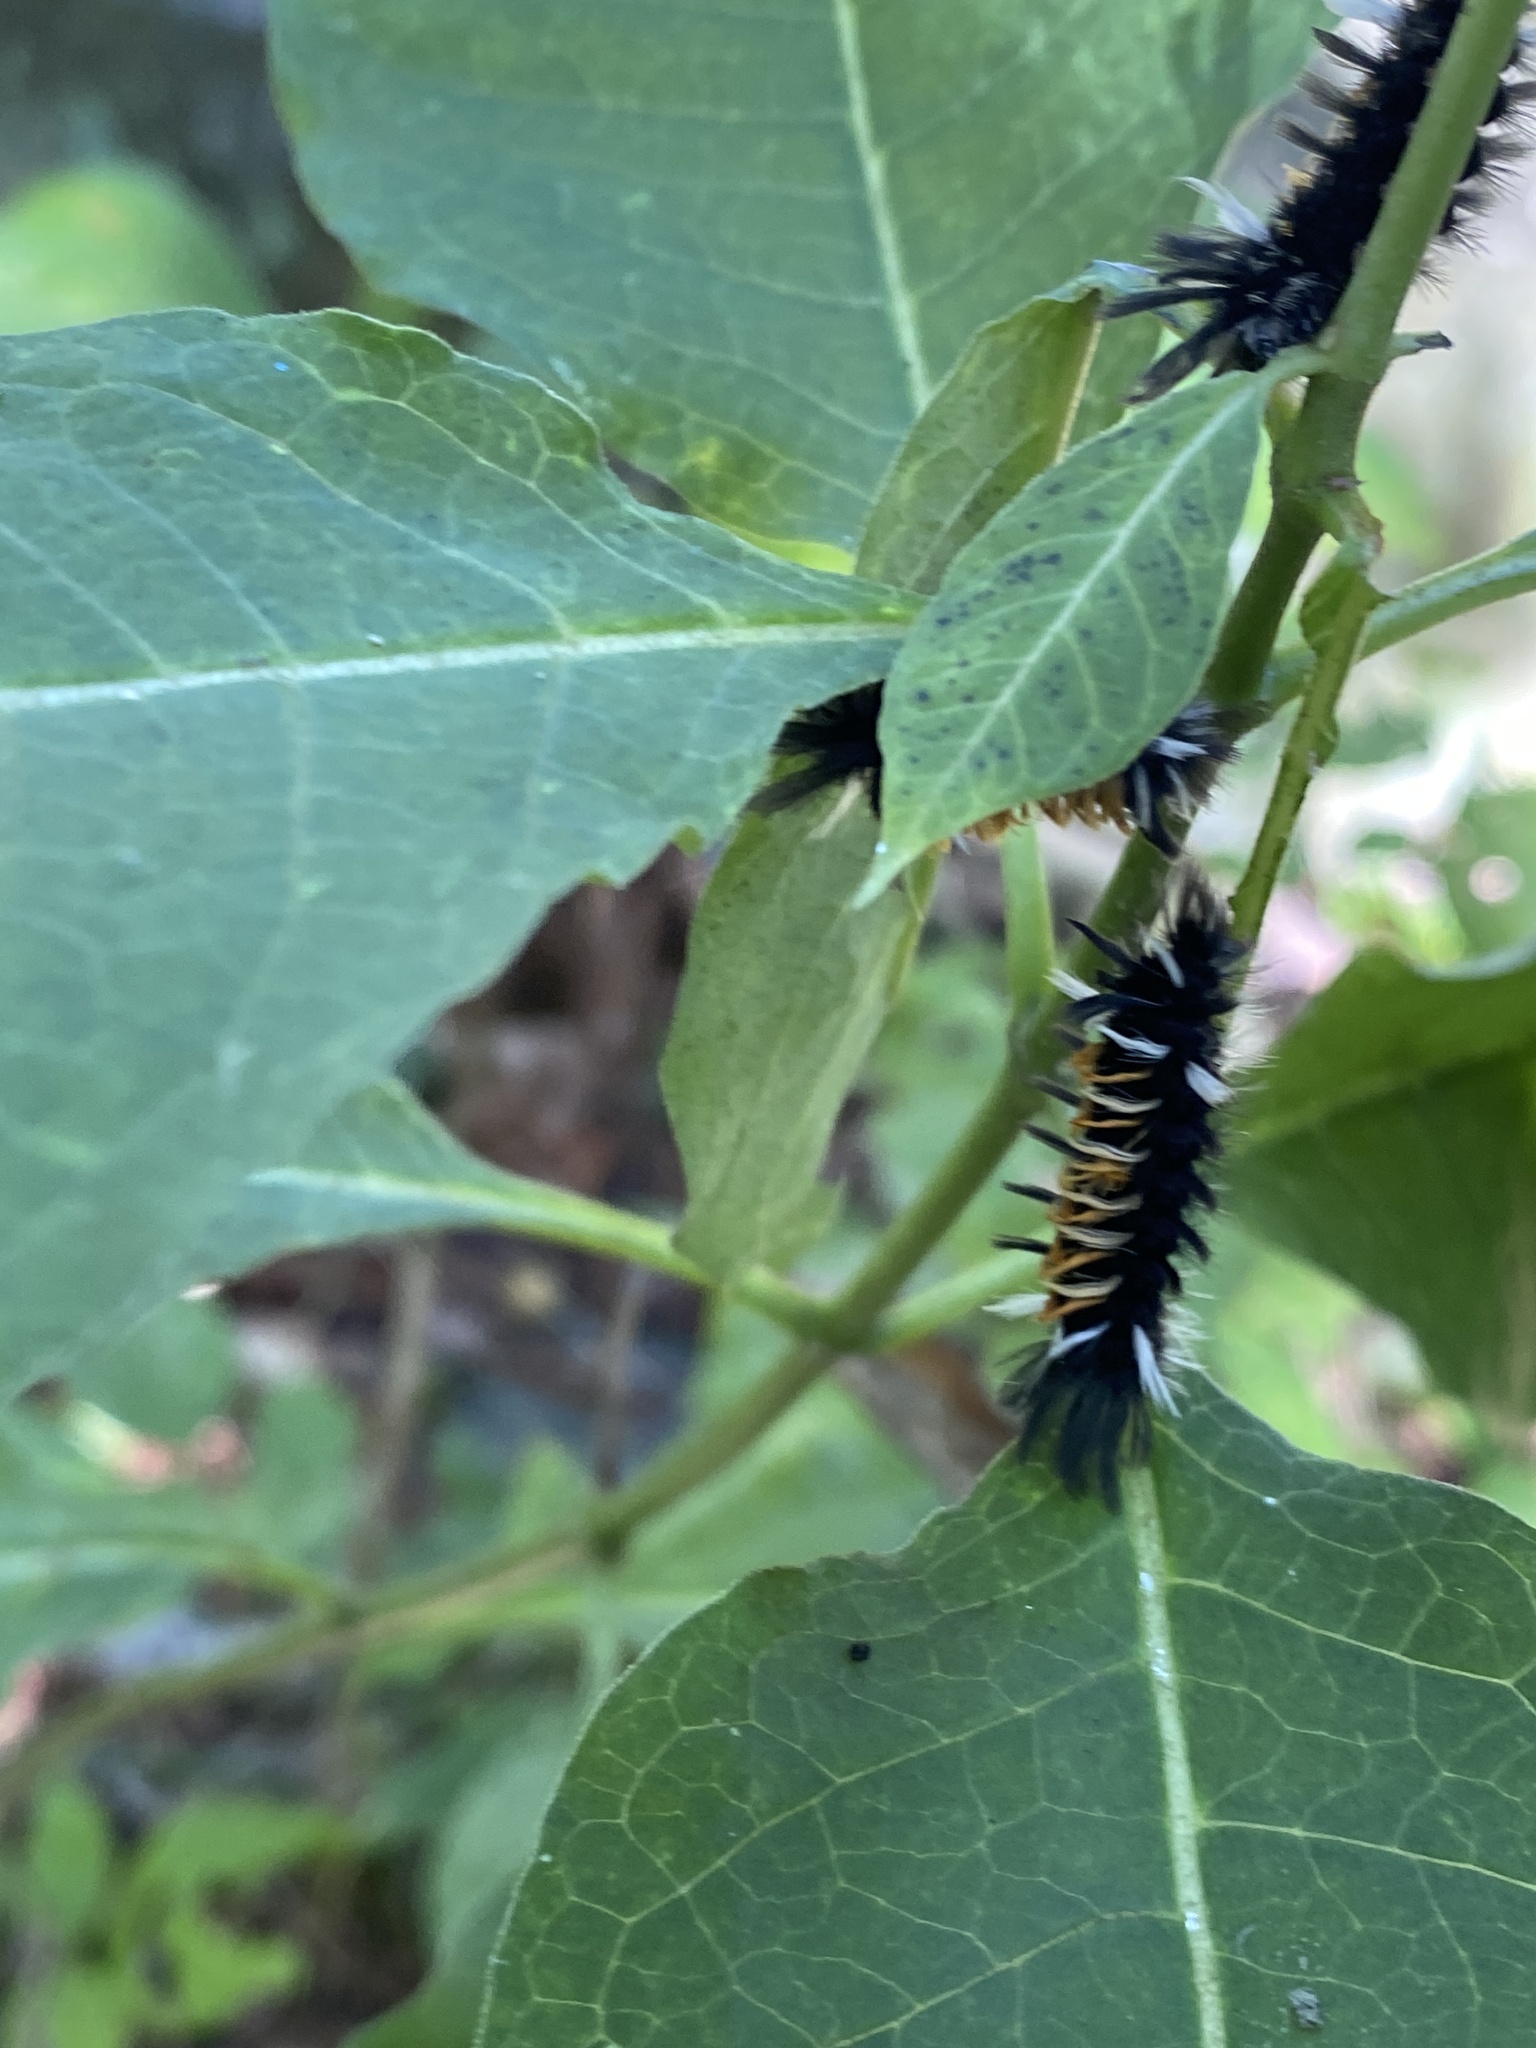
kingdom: Animalia
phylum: Arthropoda
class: Insecta
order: Lepidoptera
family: Erebidae
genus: Euchaetes
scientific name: Euchaetes egle
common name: Milkweed tussock moth
